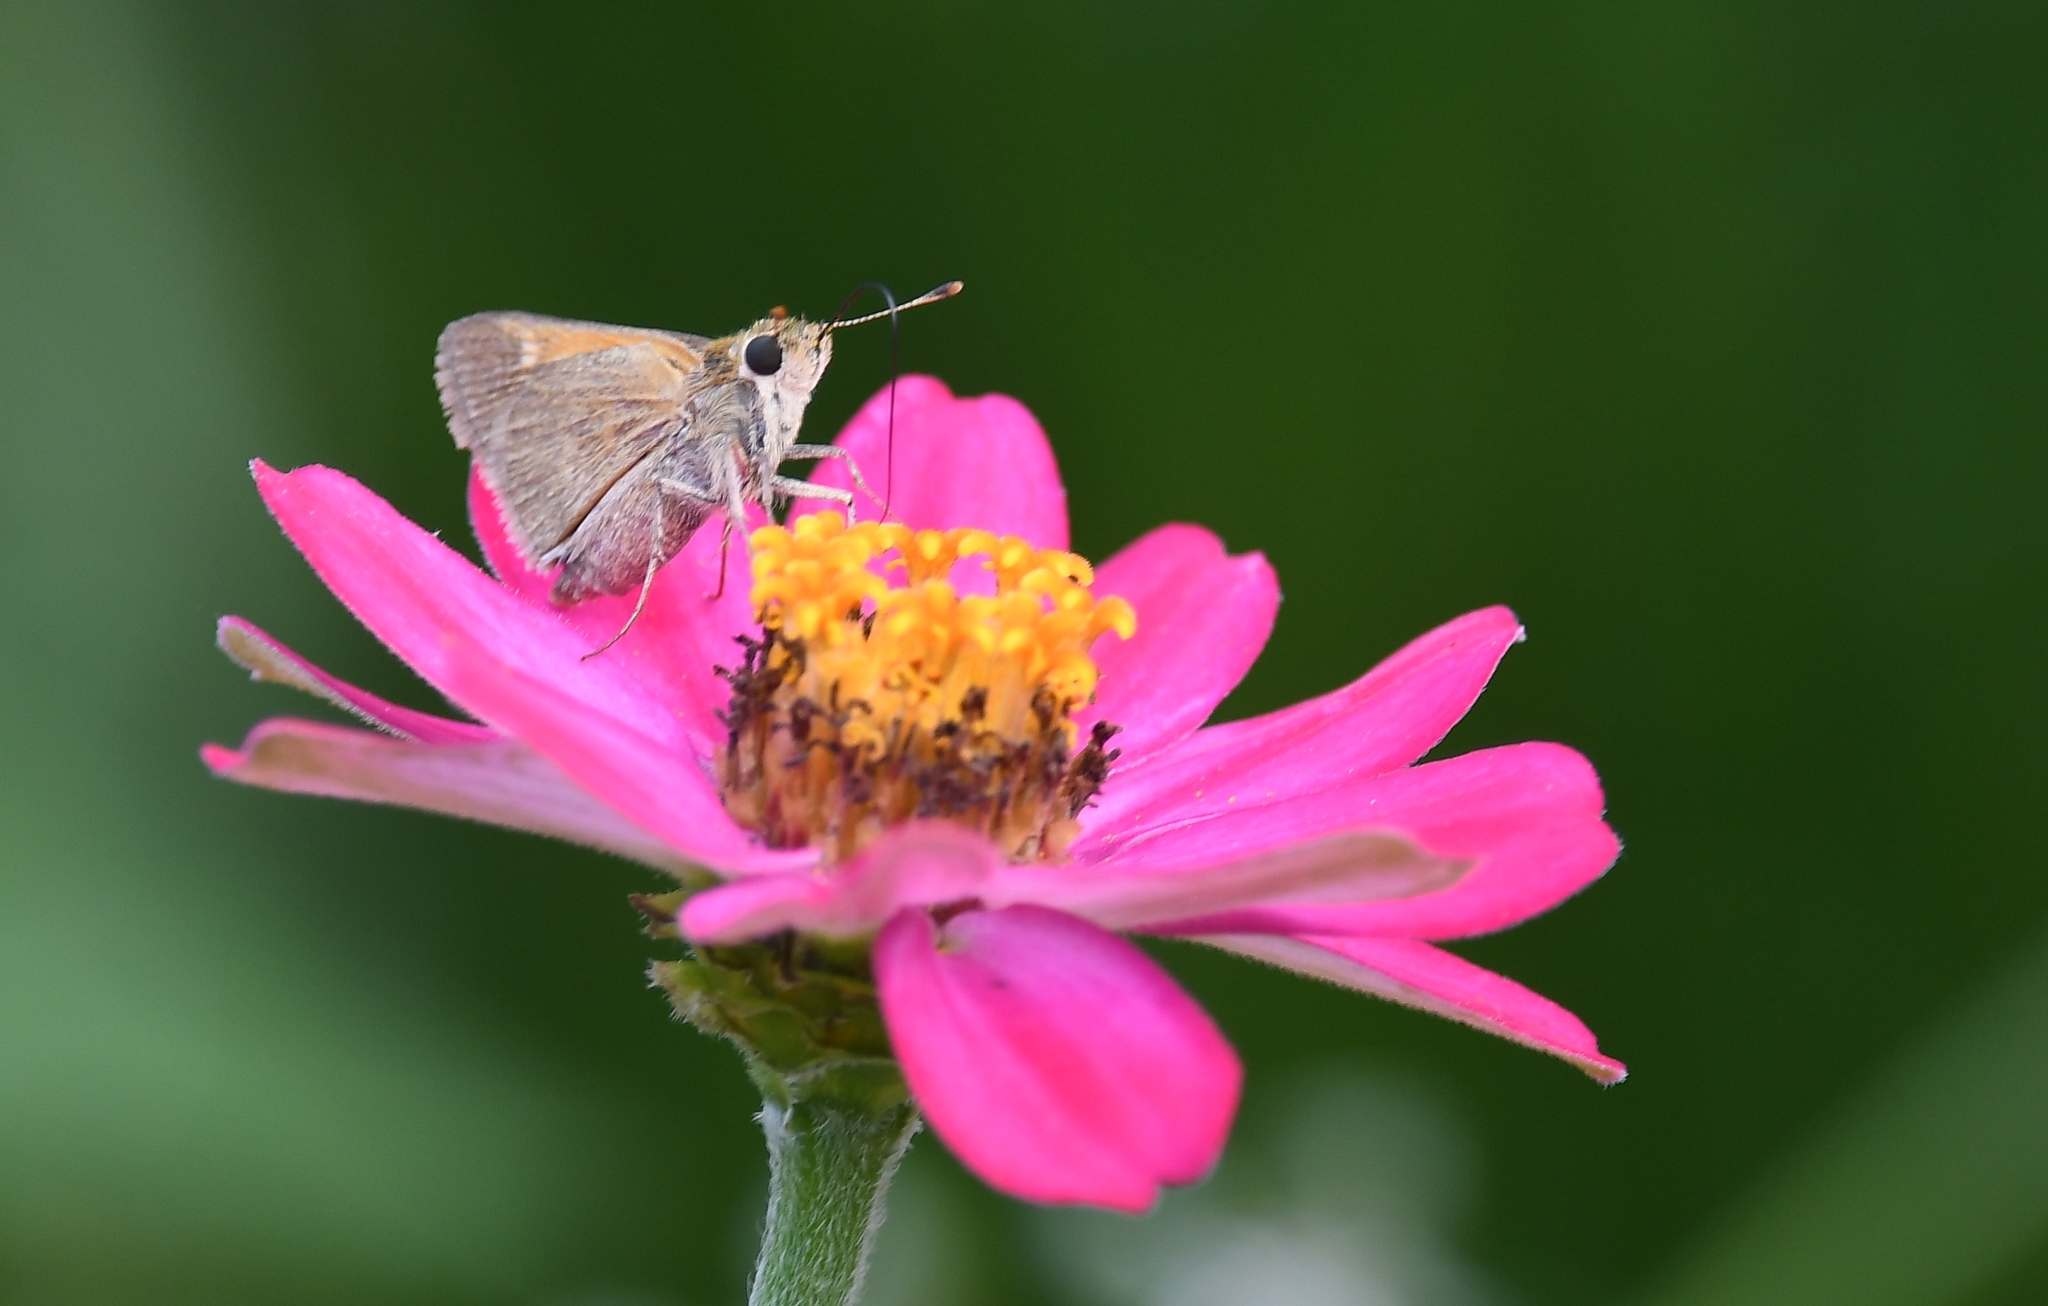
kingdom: Animalia
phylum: Arthropoda
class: Insecta
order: Lepidoptera
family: Hesperiidae
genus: Polites
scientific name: Polites themistocles
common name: Tawny-edged skipper
